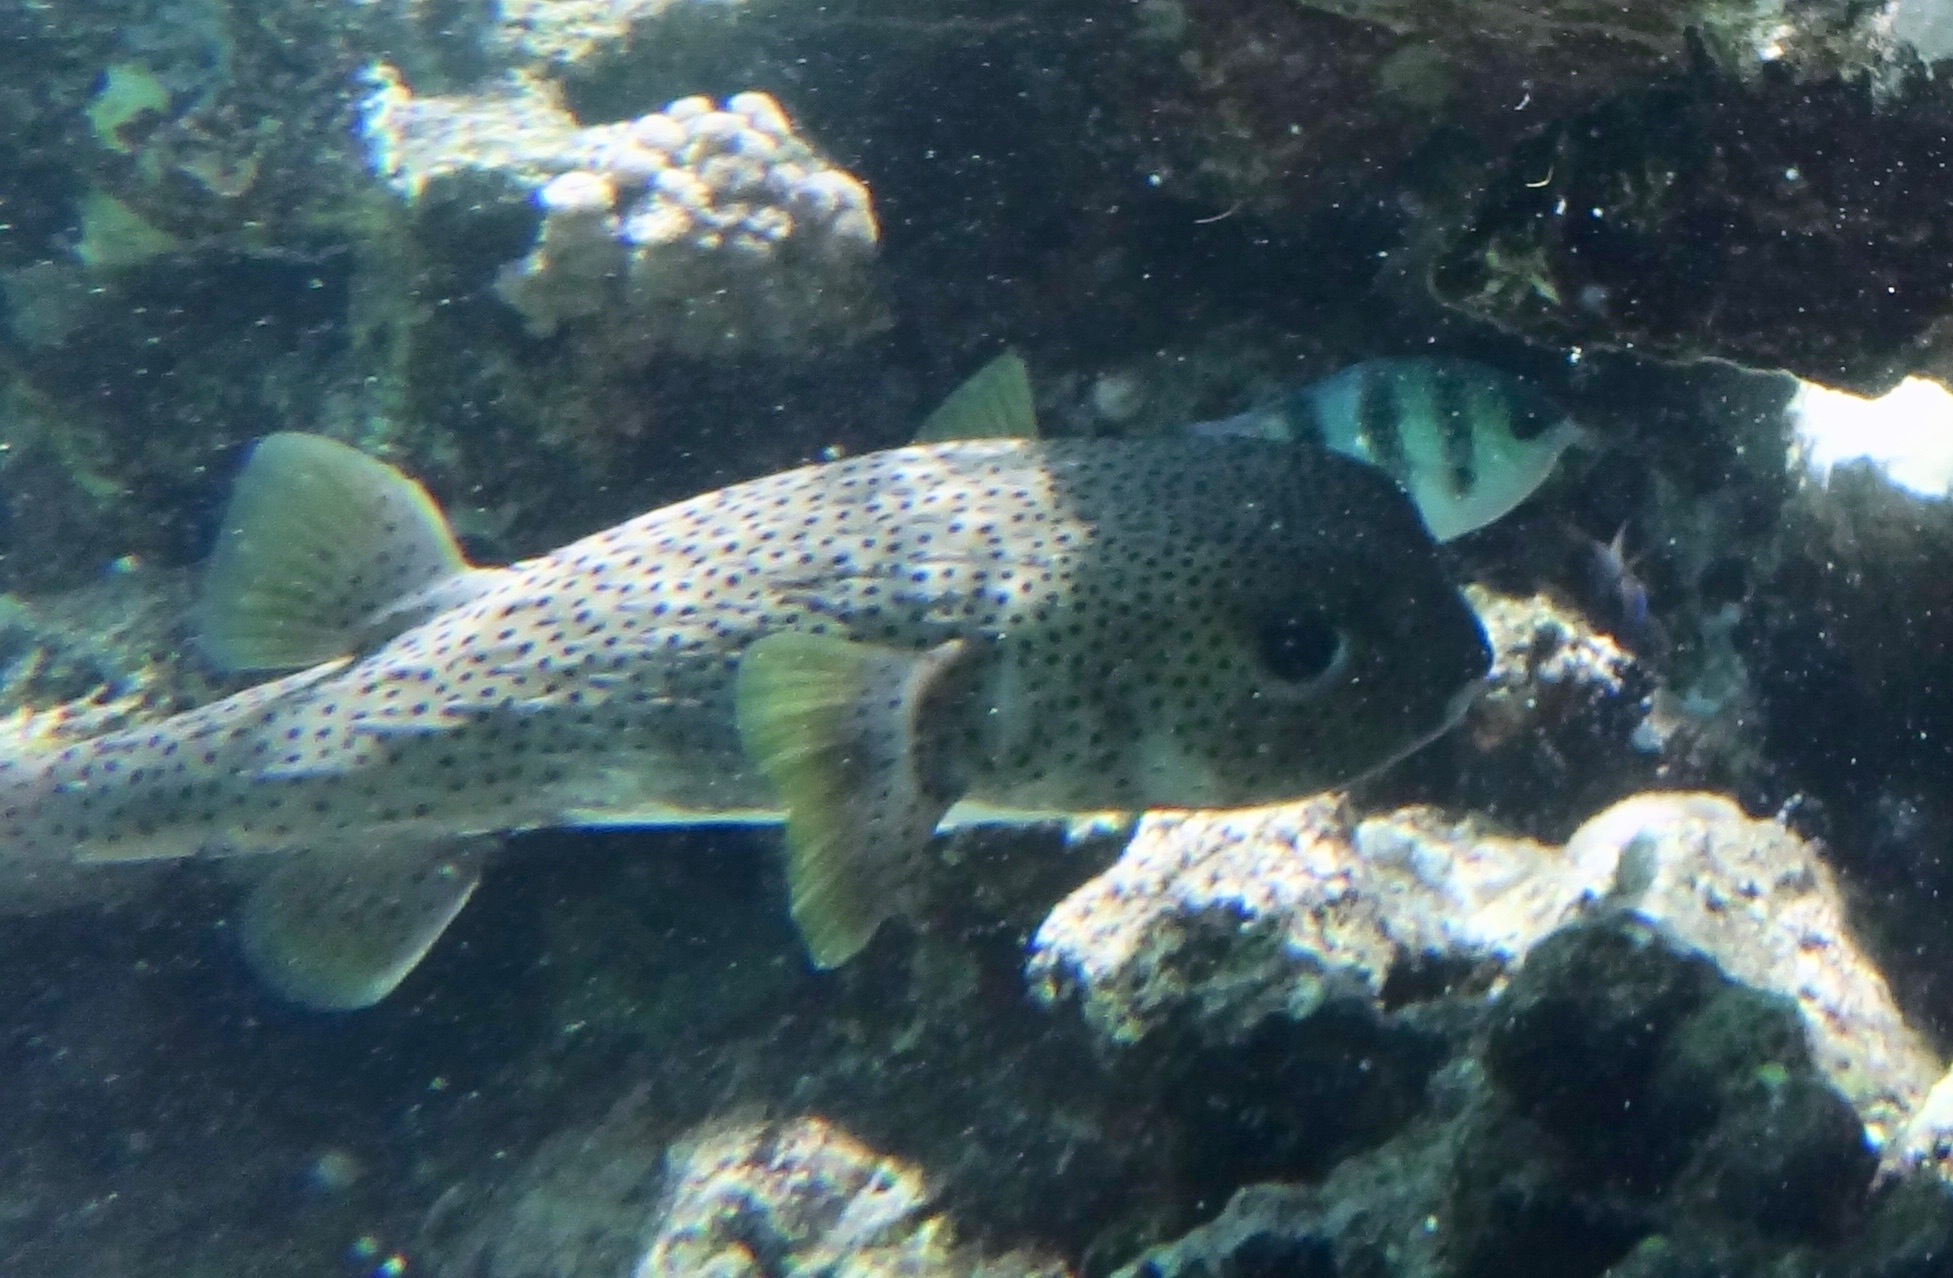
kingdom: Animalia
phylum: Chordata
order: Tetraodontiformes
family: Diodontidae
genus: Diodon
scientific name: Diodon hystrix
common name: Giant porcupinefish
